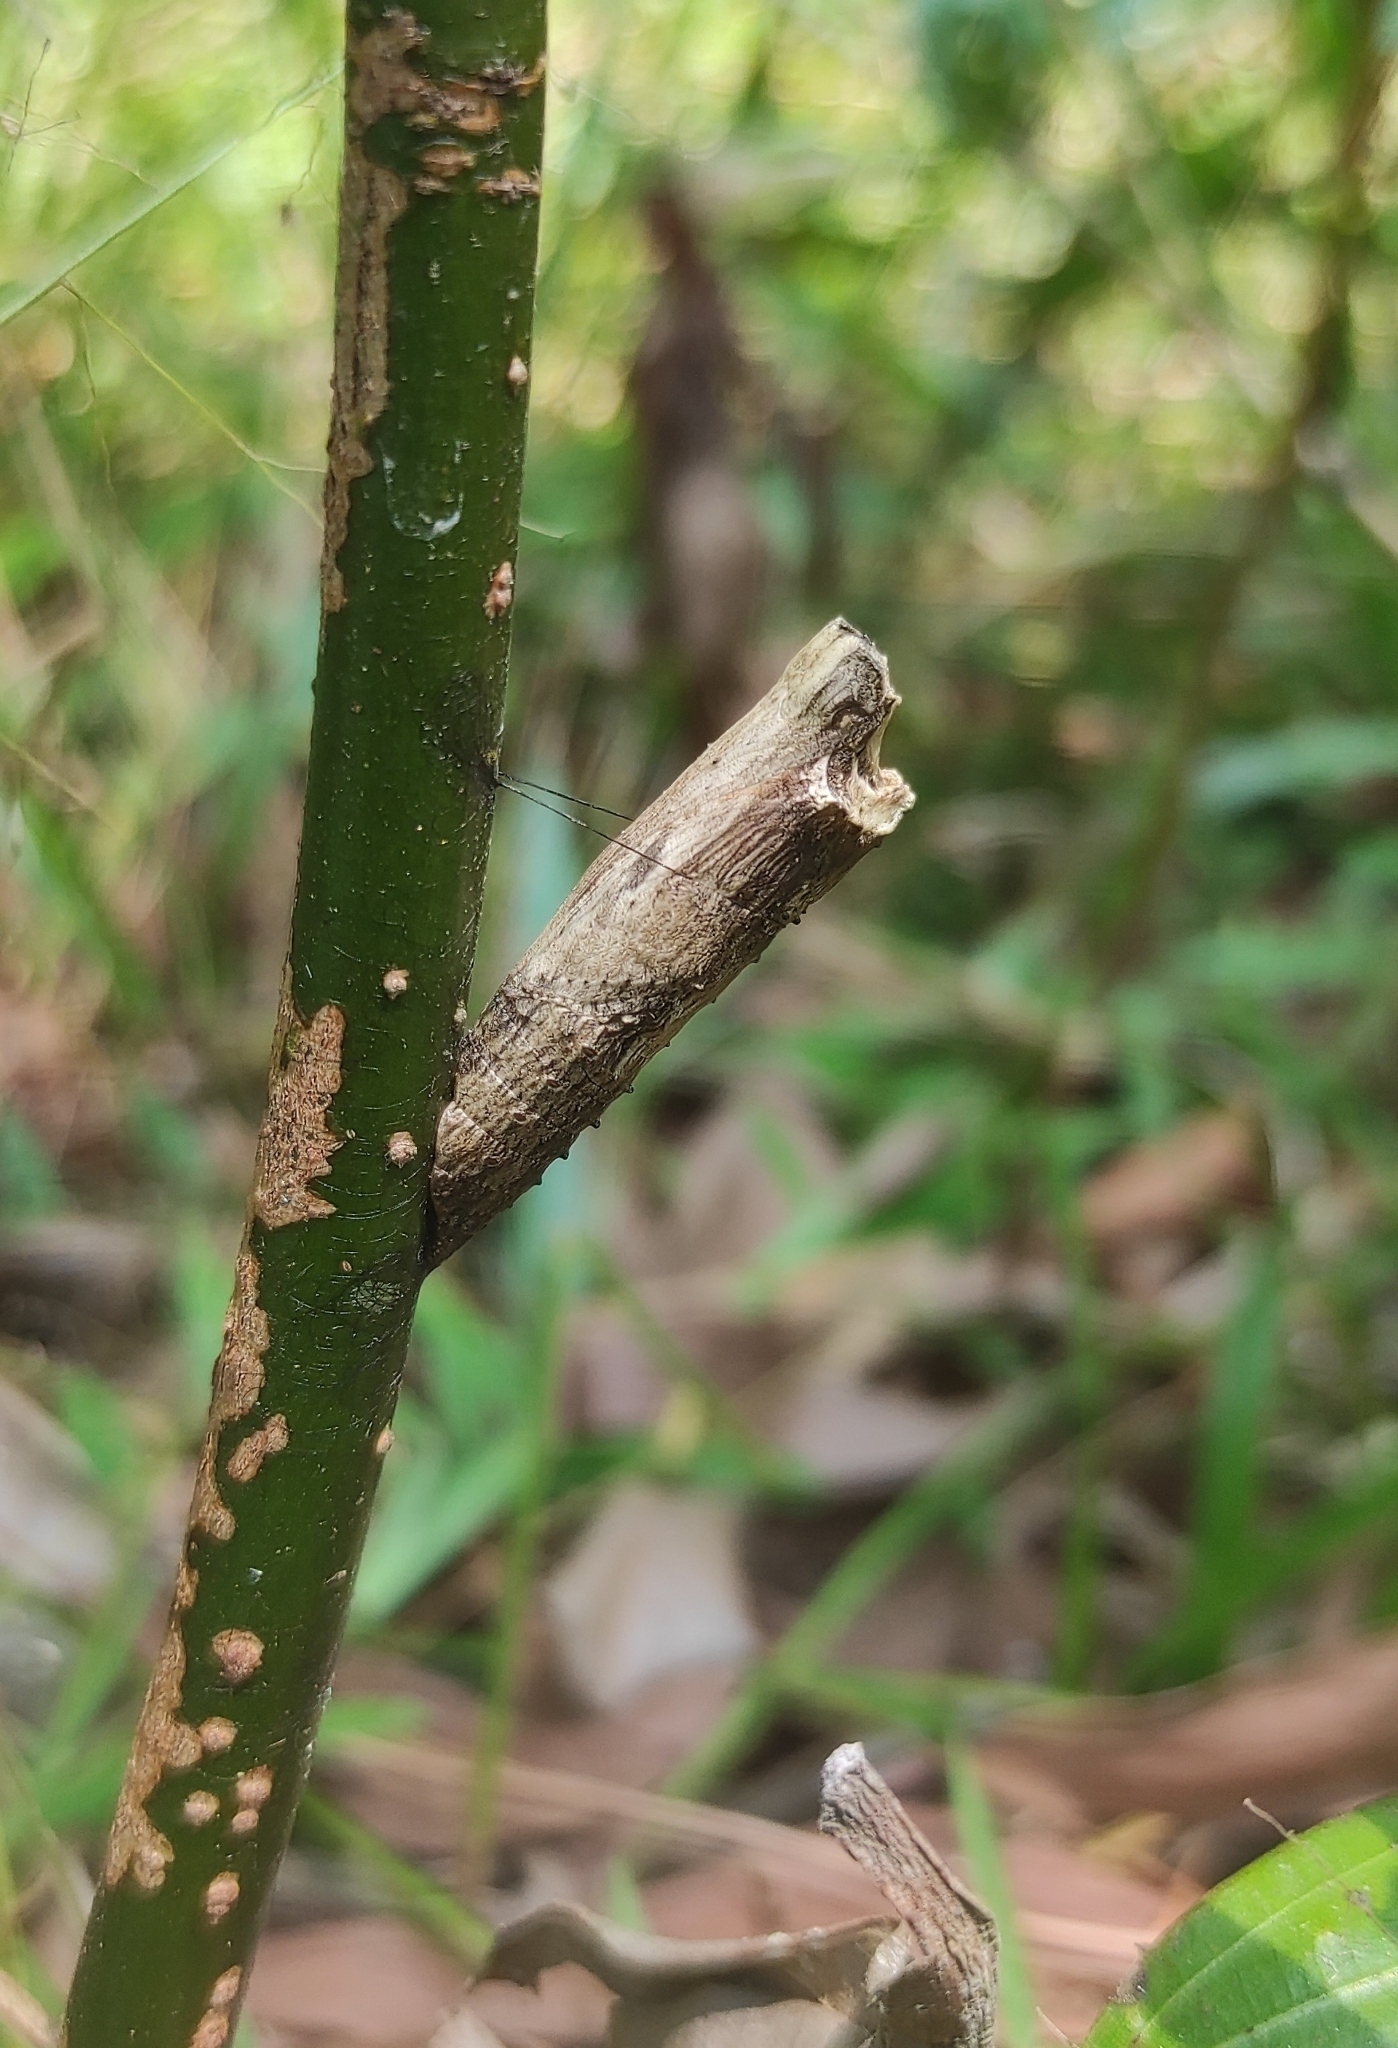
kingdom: Animalia
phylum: Arthropoda
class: Insecta
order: Lepidoptera
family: Papilionidae
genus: Chilasa
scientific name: Chilasa clytia
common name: Common mime
